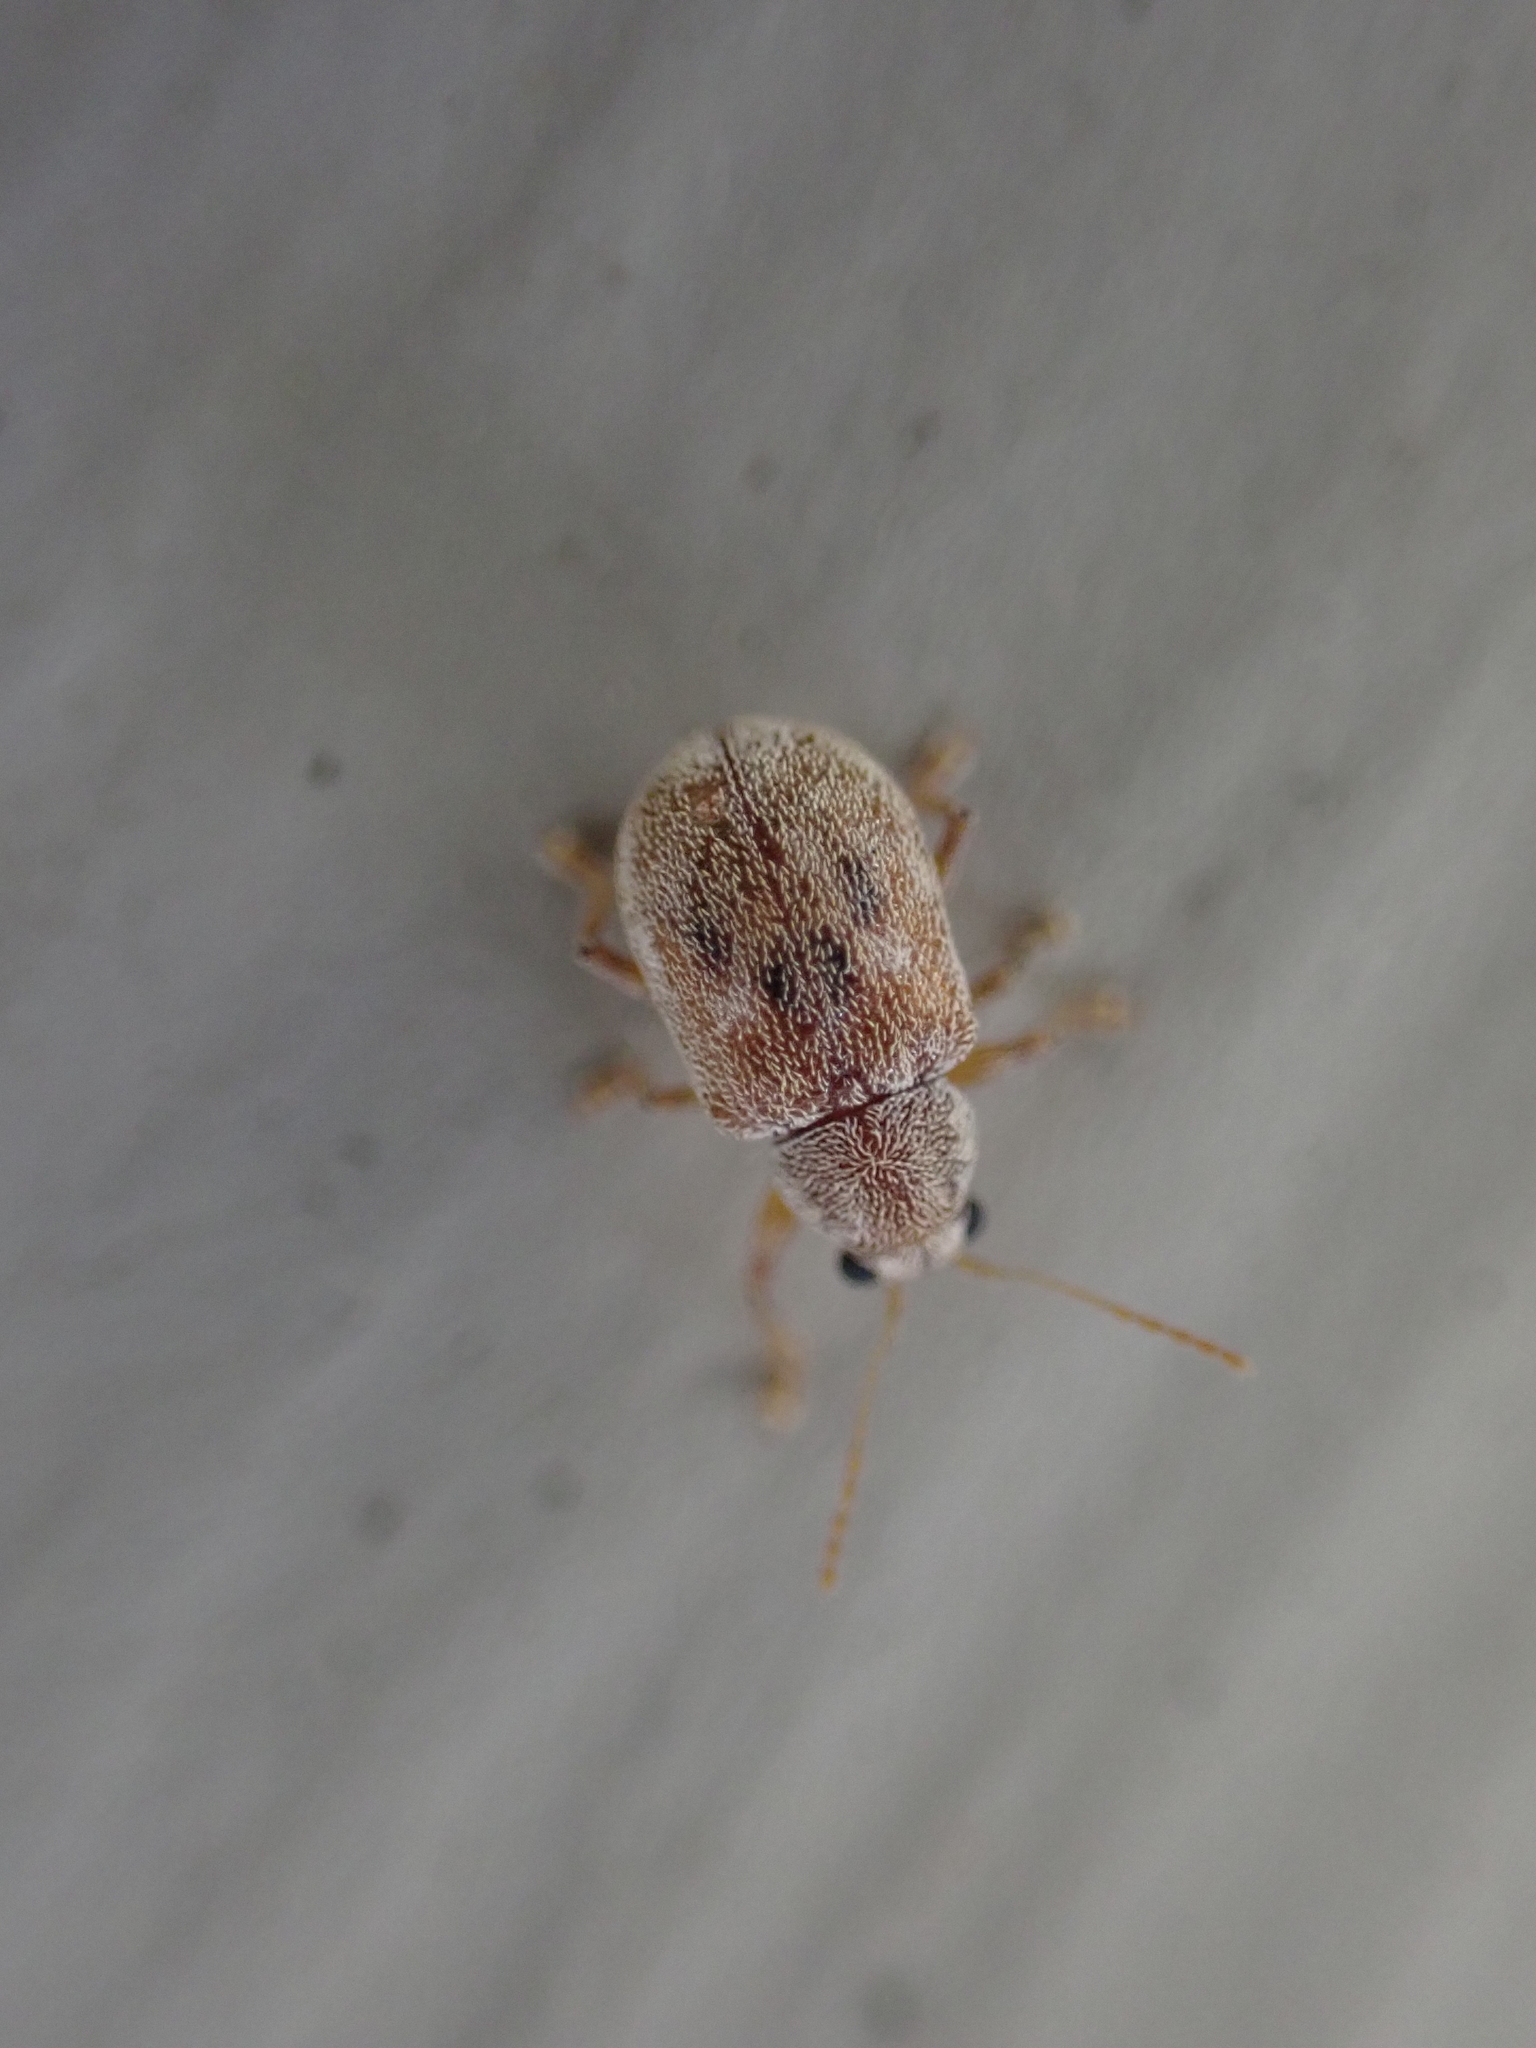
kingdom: Animalia
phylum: Arthropoda
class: Insecta
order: Coleoptera
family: Chrysomelidae
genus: Demotina
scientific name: Demotina modesta
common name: Leaf beetle
